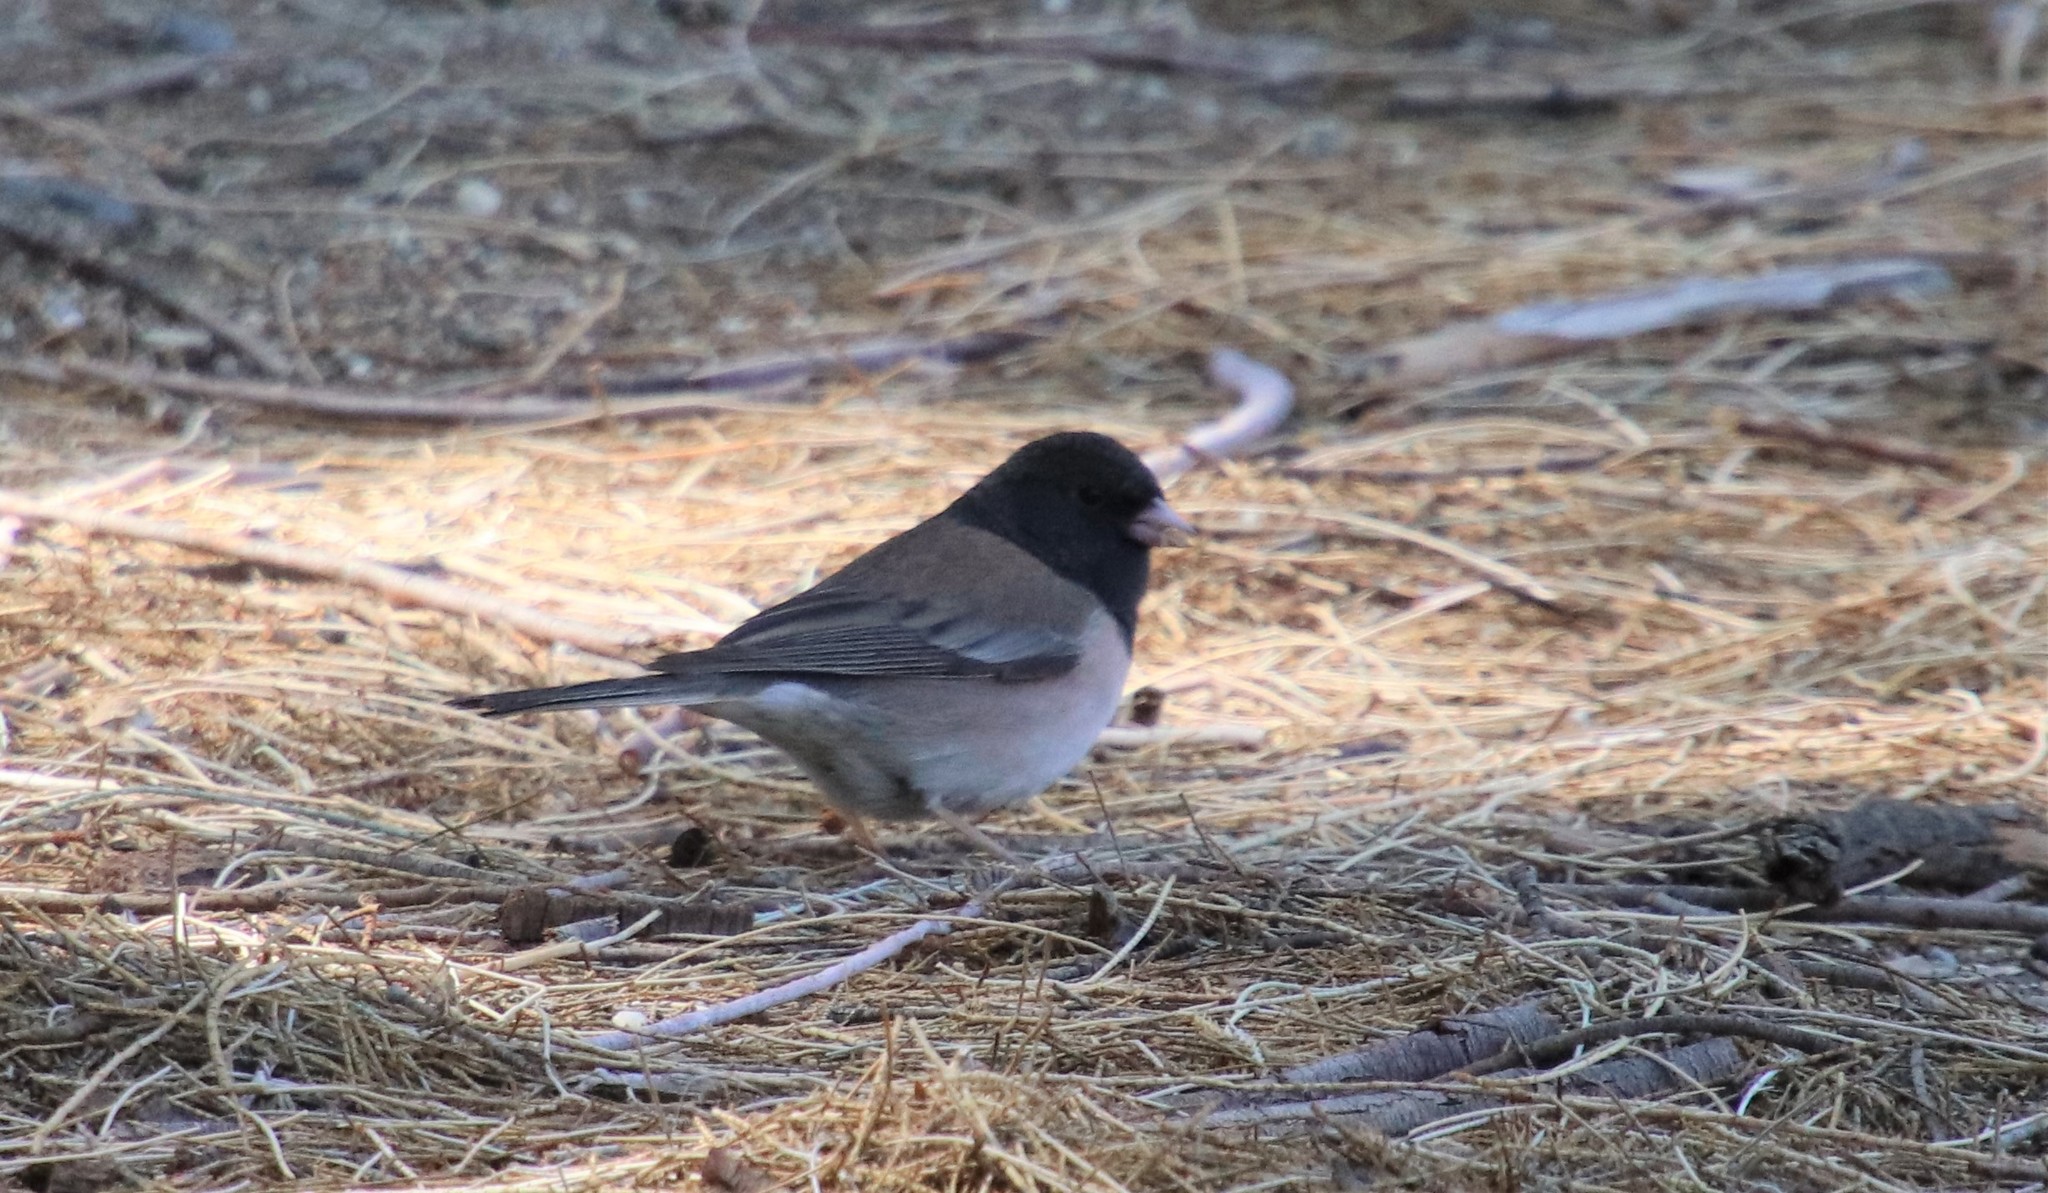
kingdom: Animalia
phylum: Chordata
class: Aves
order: Passeriformes
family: Passerellidae
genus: Junco
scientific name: Junco hyemalis
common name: Dark-eyed junco
